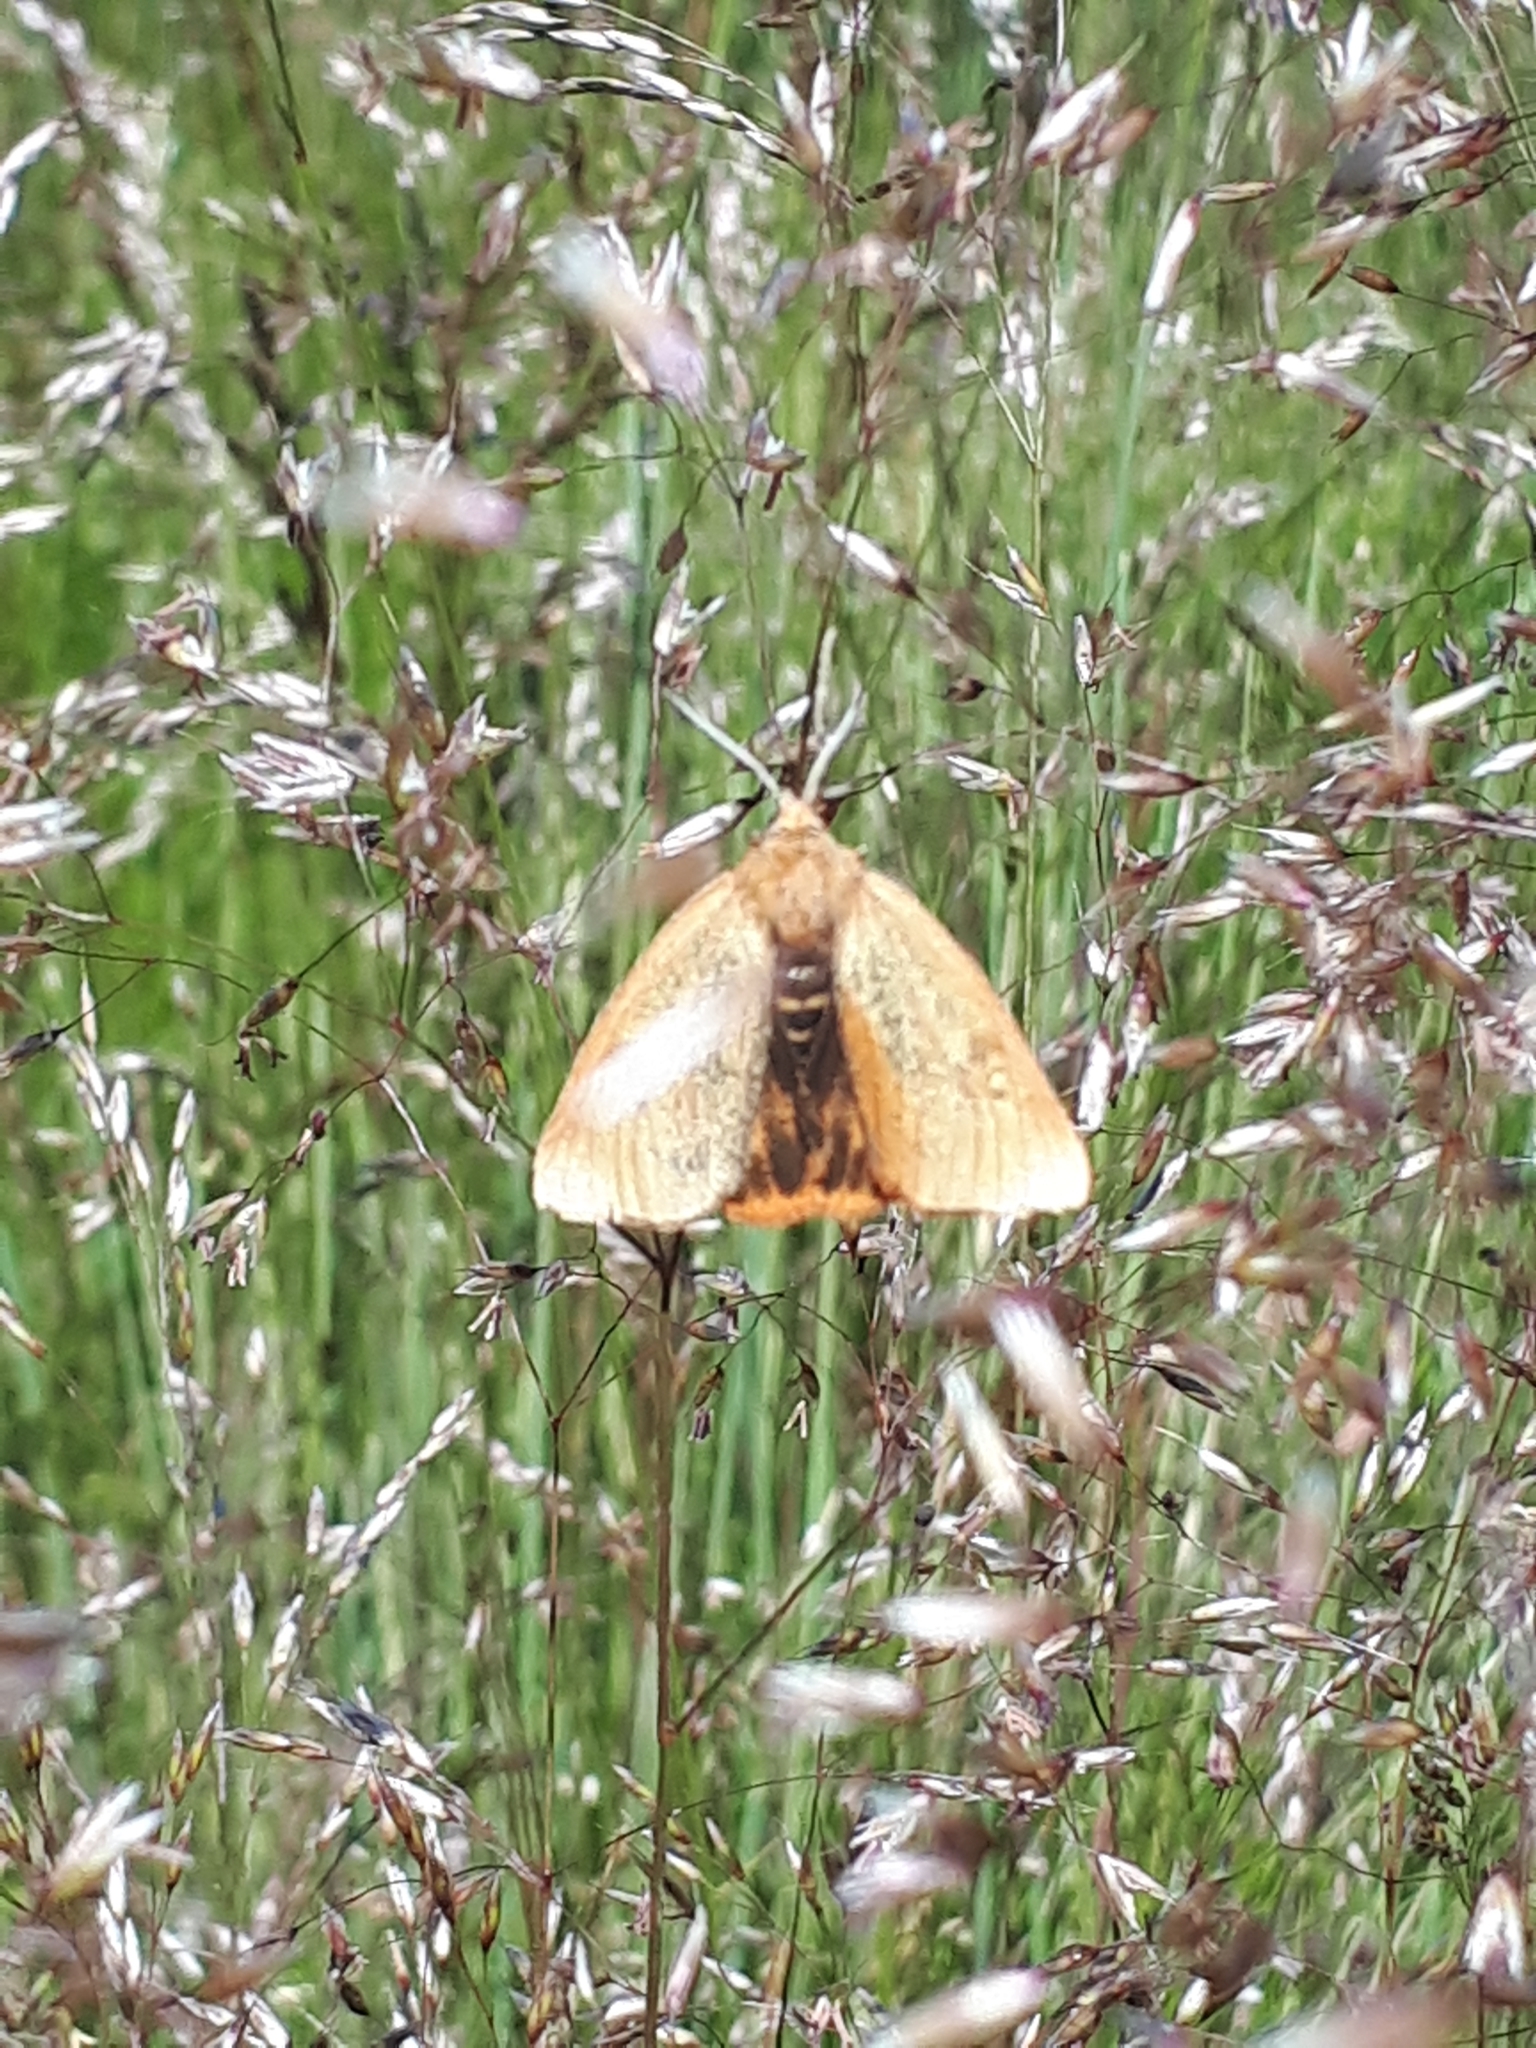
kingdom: Animalia
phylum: Arthropoda
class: Insecta
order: Lepidoptera
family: Erebidae
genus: Diacrisia
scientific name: Diacrisia sannio
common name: Clouded buff
